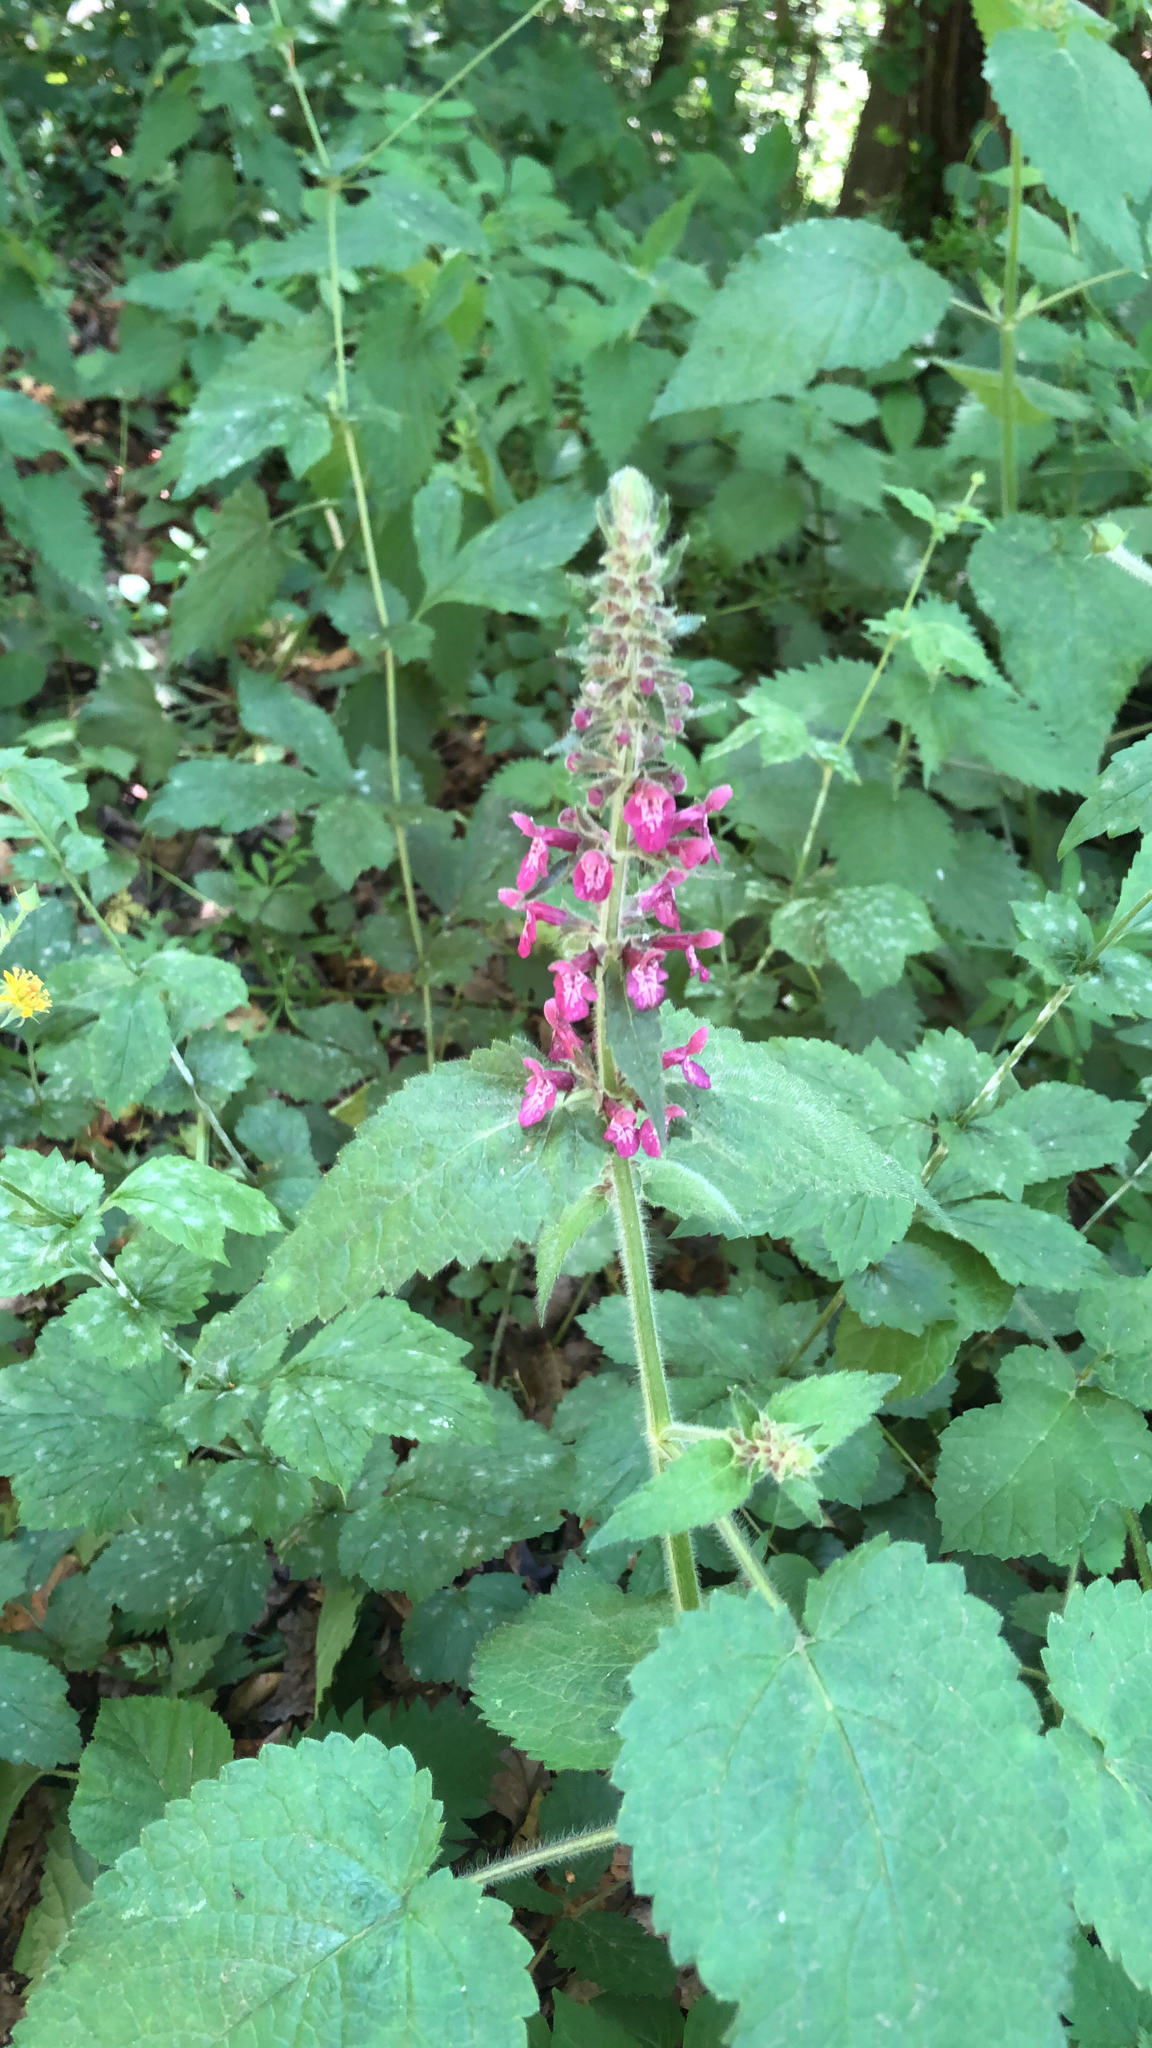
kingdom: Plantae
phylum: Tracheophyta
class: Magnoliopsida
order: Lamiales
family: Lamiaceae
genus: Stachys
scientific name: Stachys sylvatica
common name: Hedge woundwort
